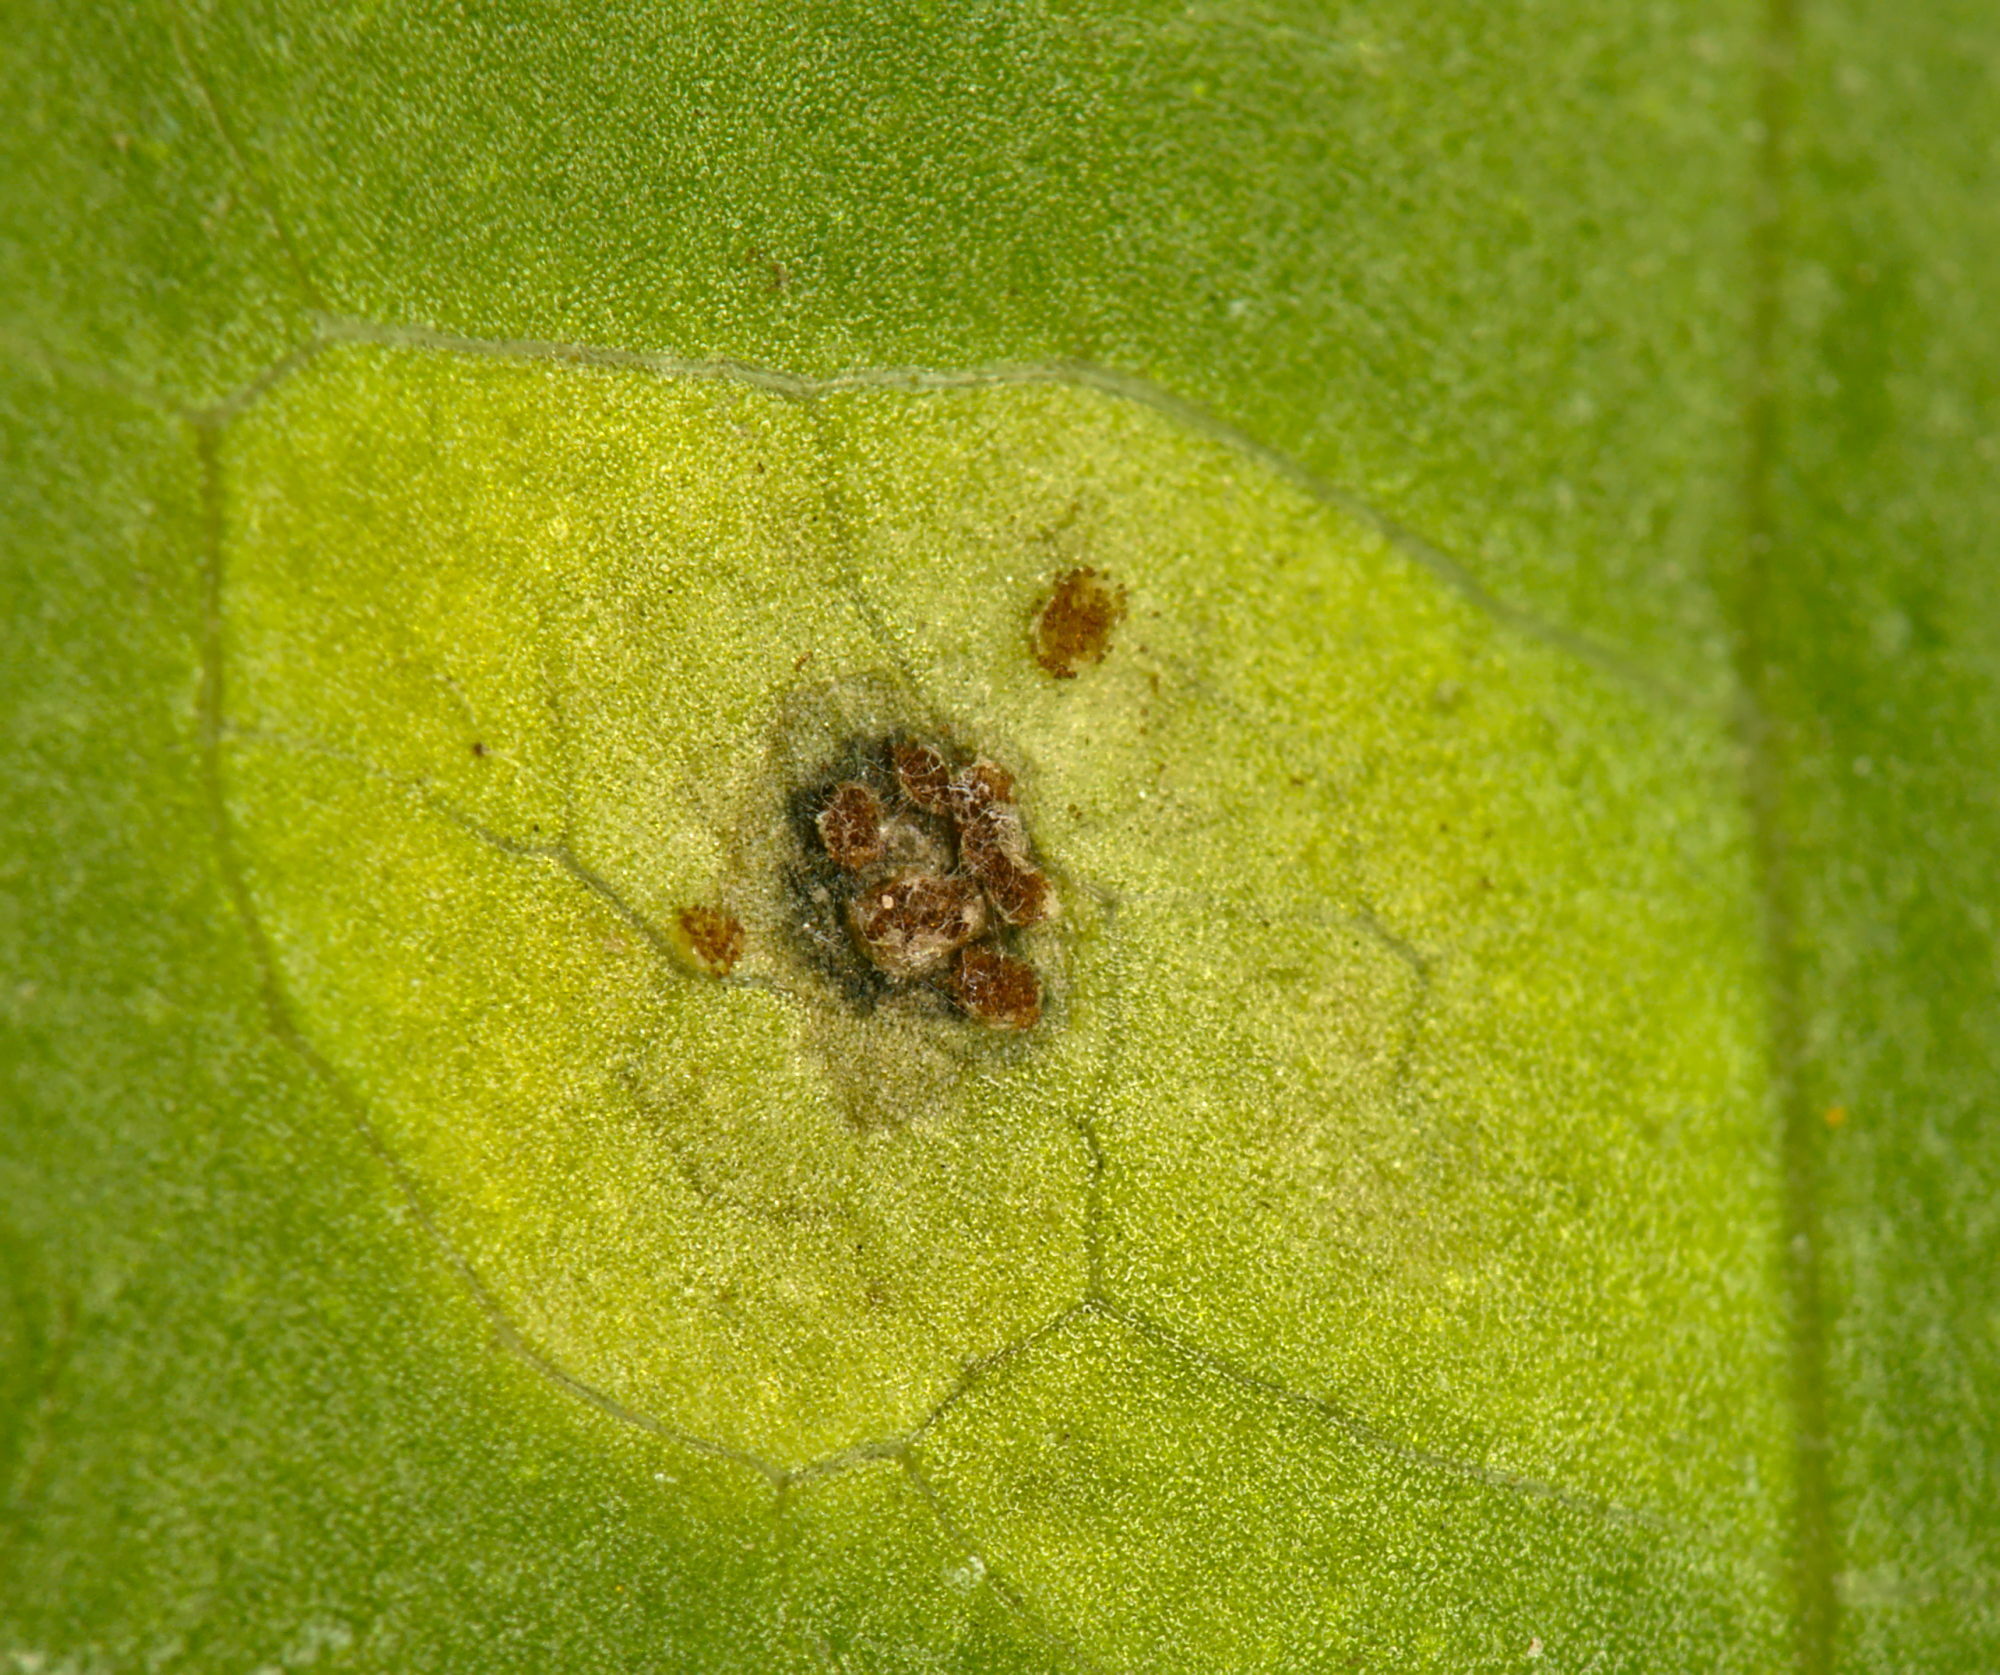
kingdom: Fungi
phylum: Basidiomycota
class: Pucciniomycetes
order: Pucciniales
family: Pucciniaceae
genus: Puccinia
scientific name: Puccinia convolvuli
